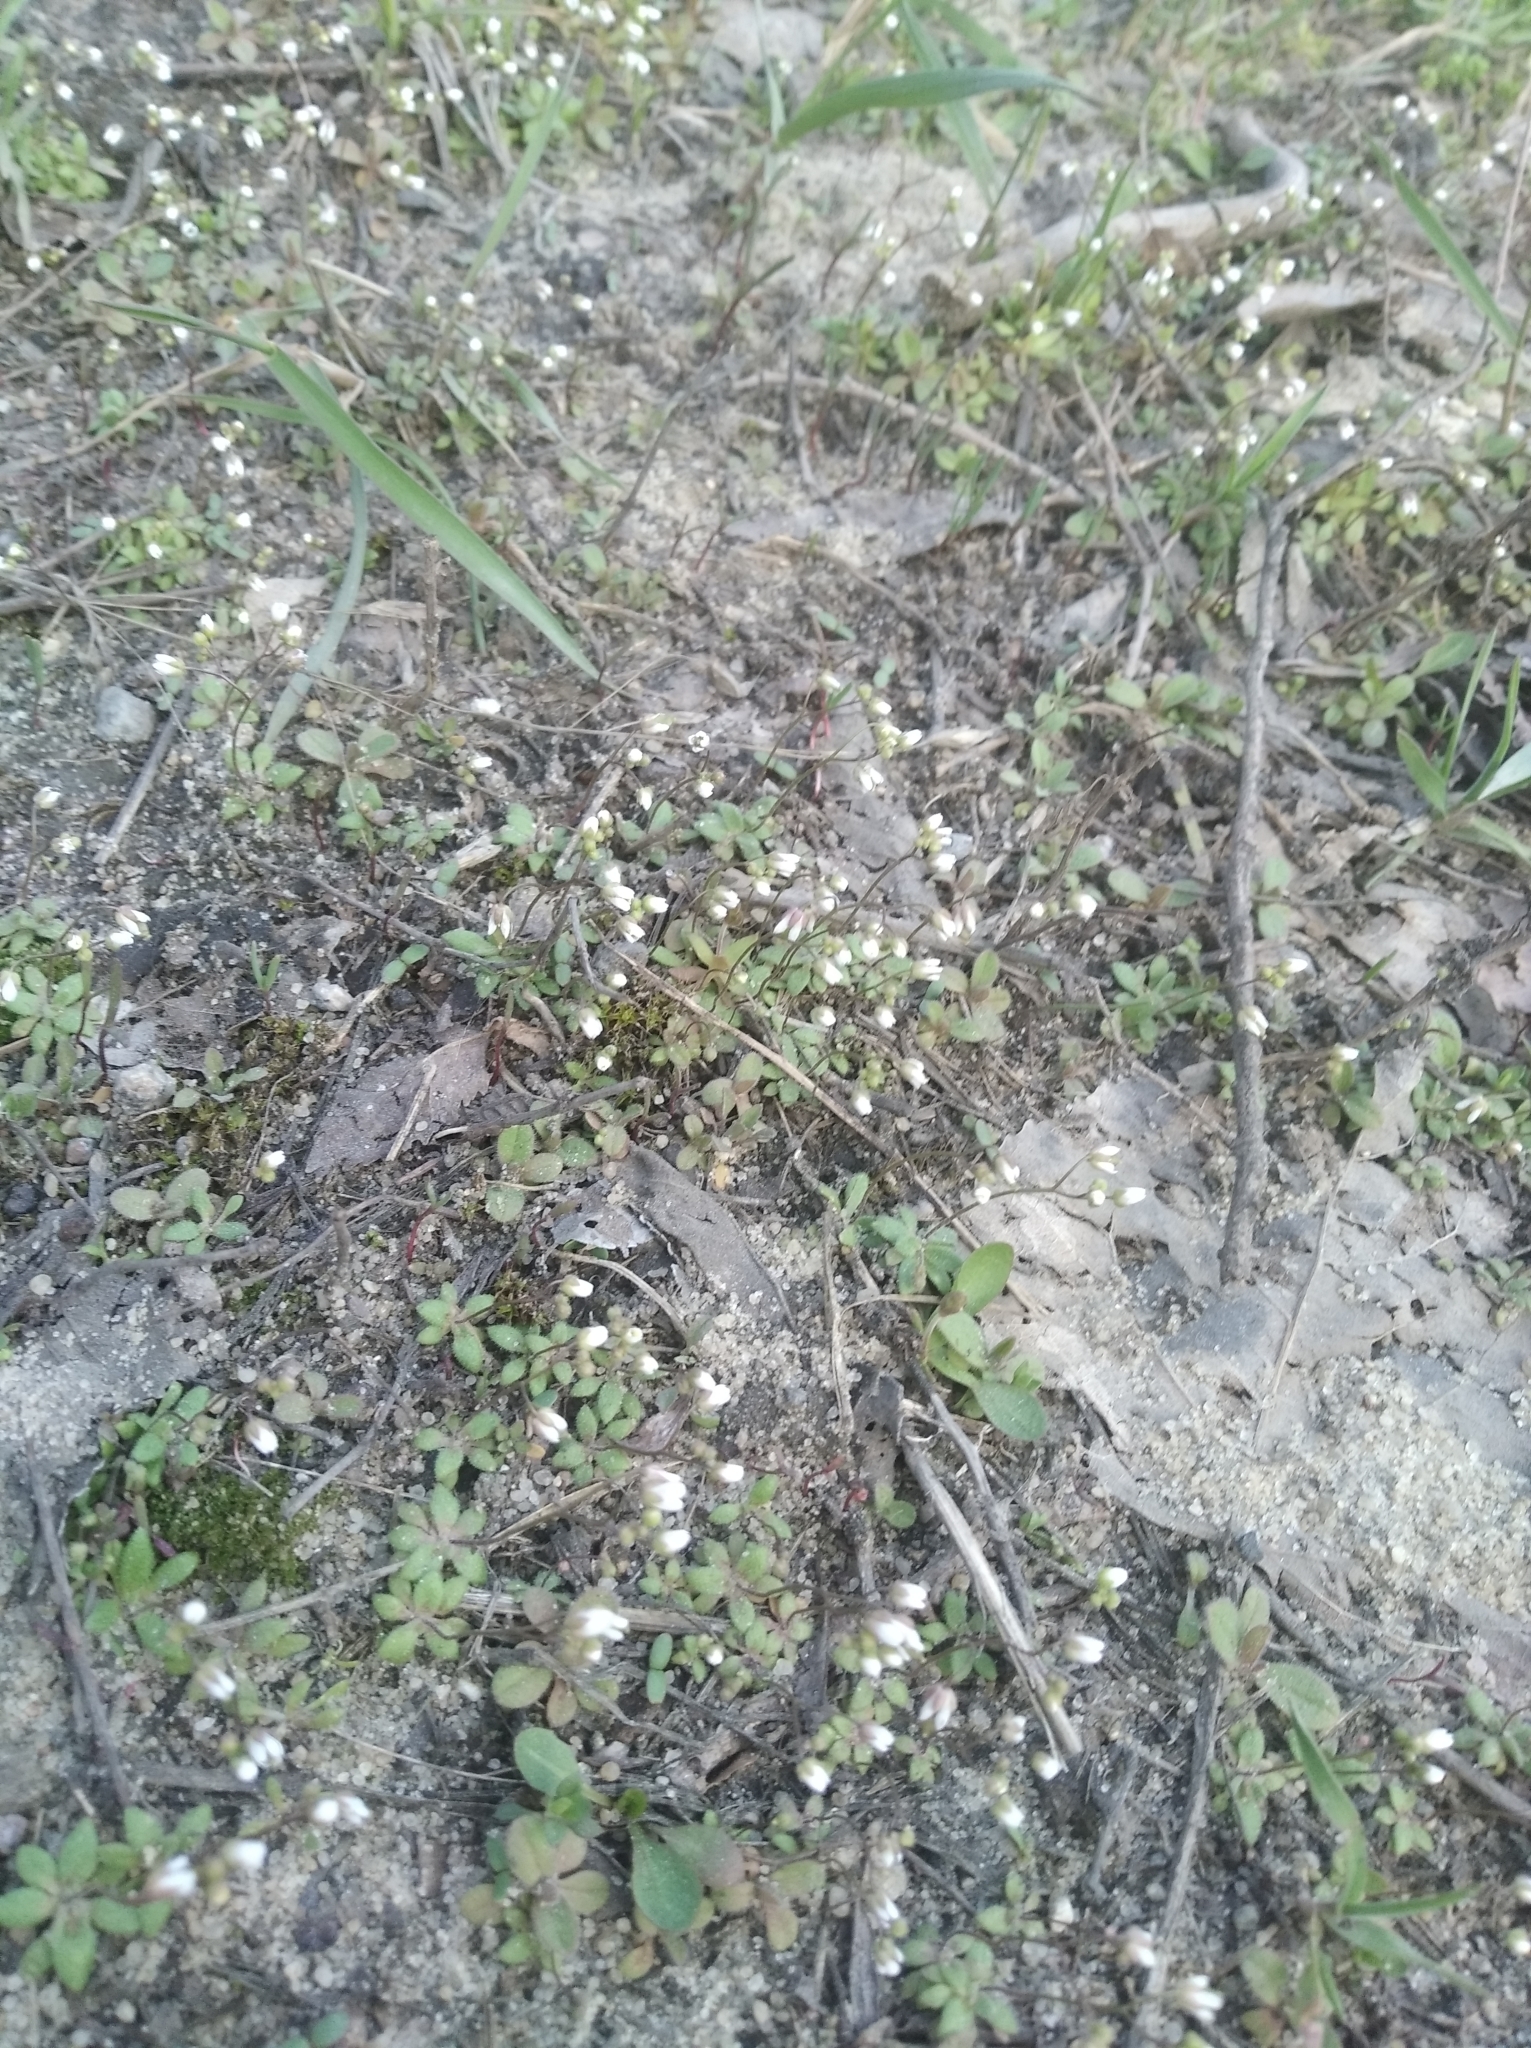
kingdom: Plantae
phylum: Tracheophyta
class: Magnoliopsida
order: Brassicales
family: Brassicaceae
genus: Draba
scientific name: Draba verna
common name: Spring draba
